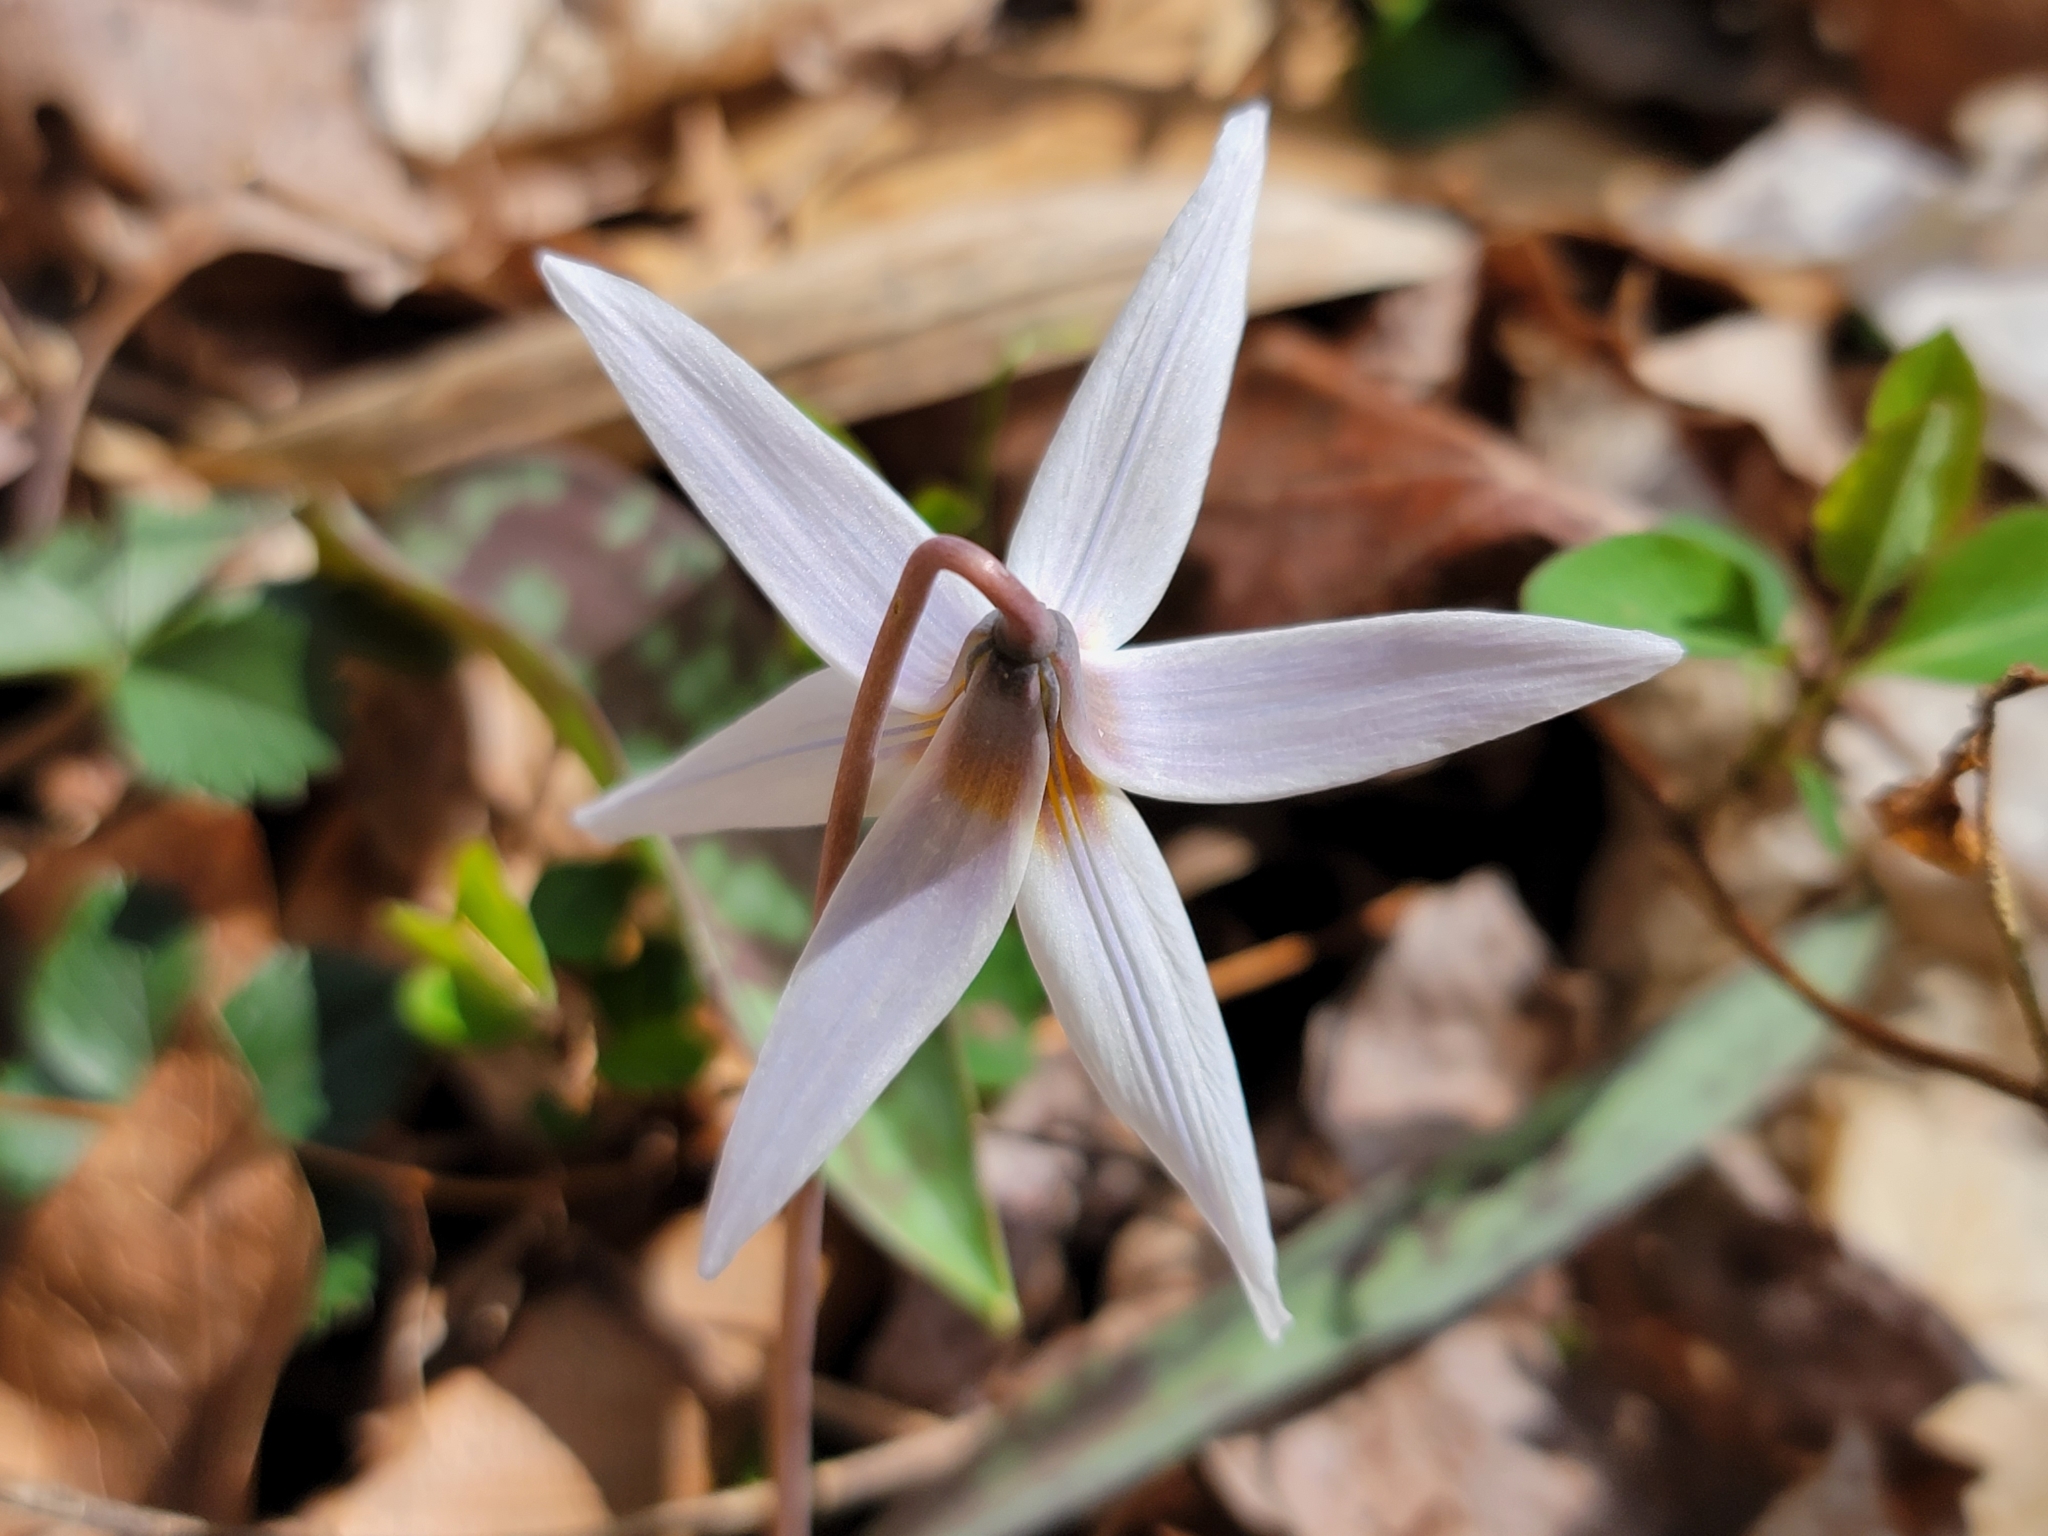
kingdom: Plantae
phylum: Tracheophyta
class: Liliopsida
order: Liliales
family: Liliaceae
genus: Erythronium
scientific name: Erythronium albidum
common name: White trout-lily
